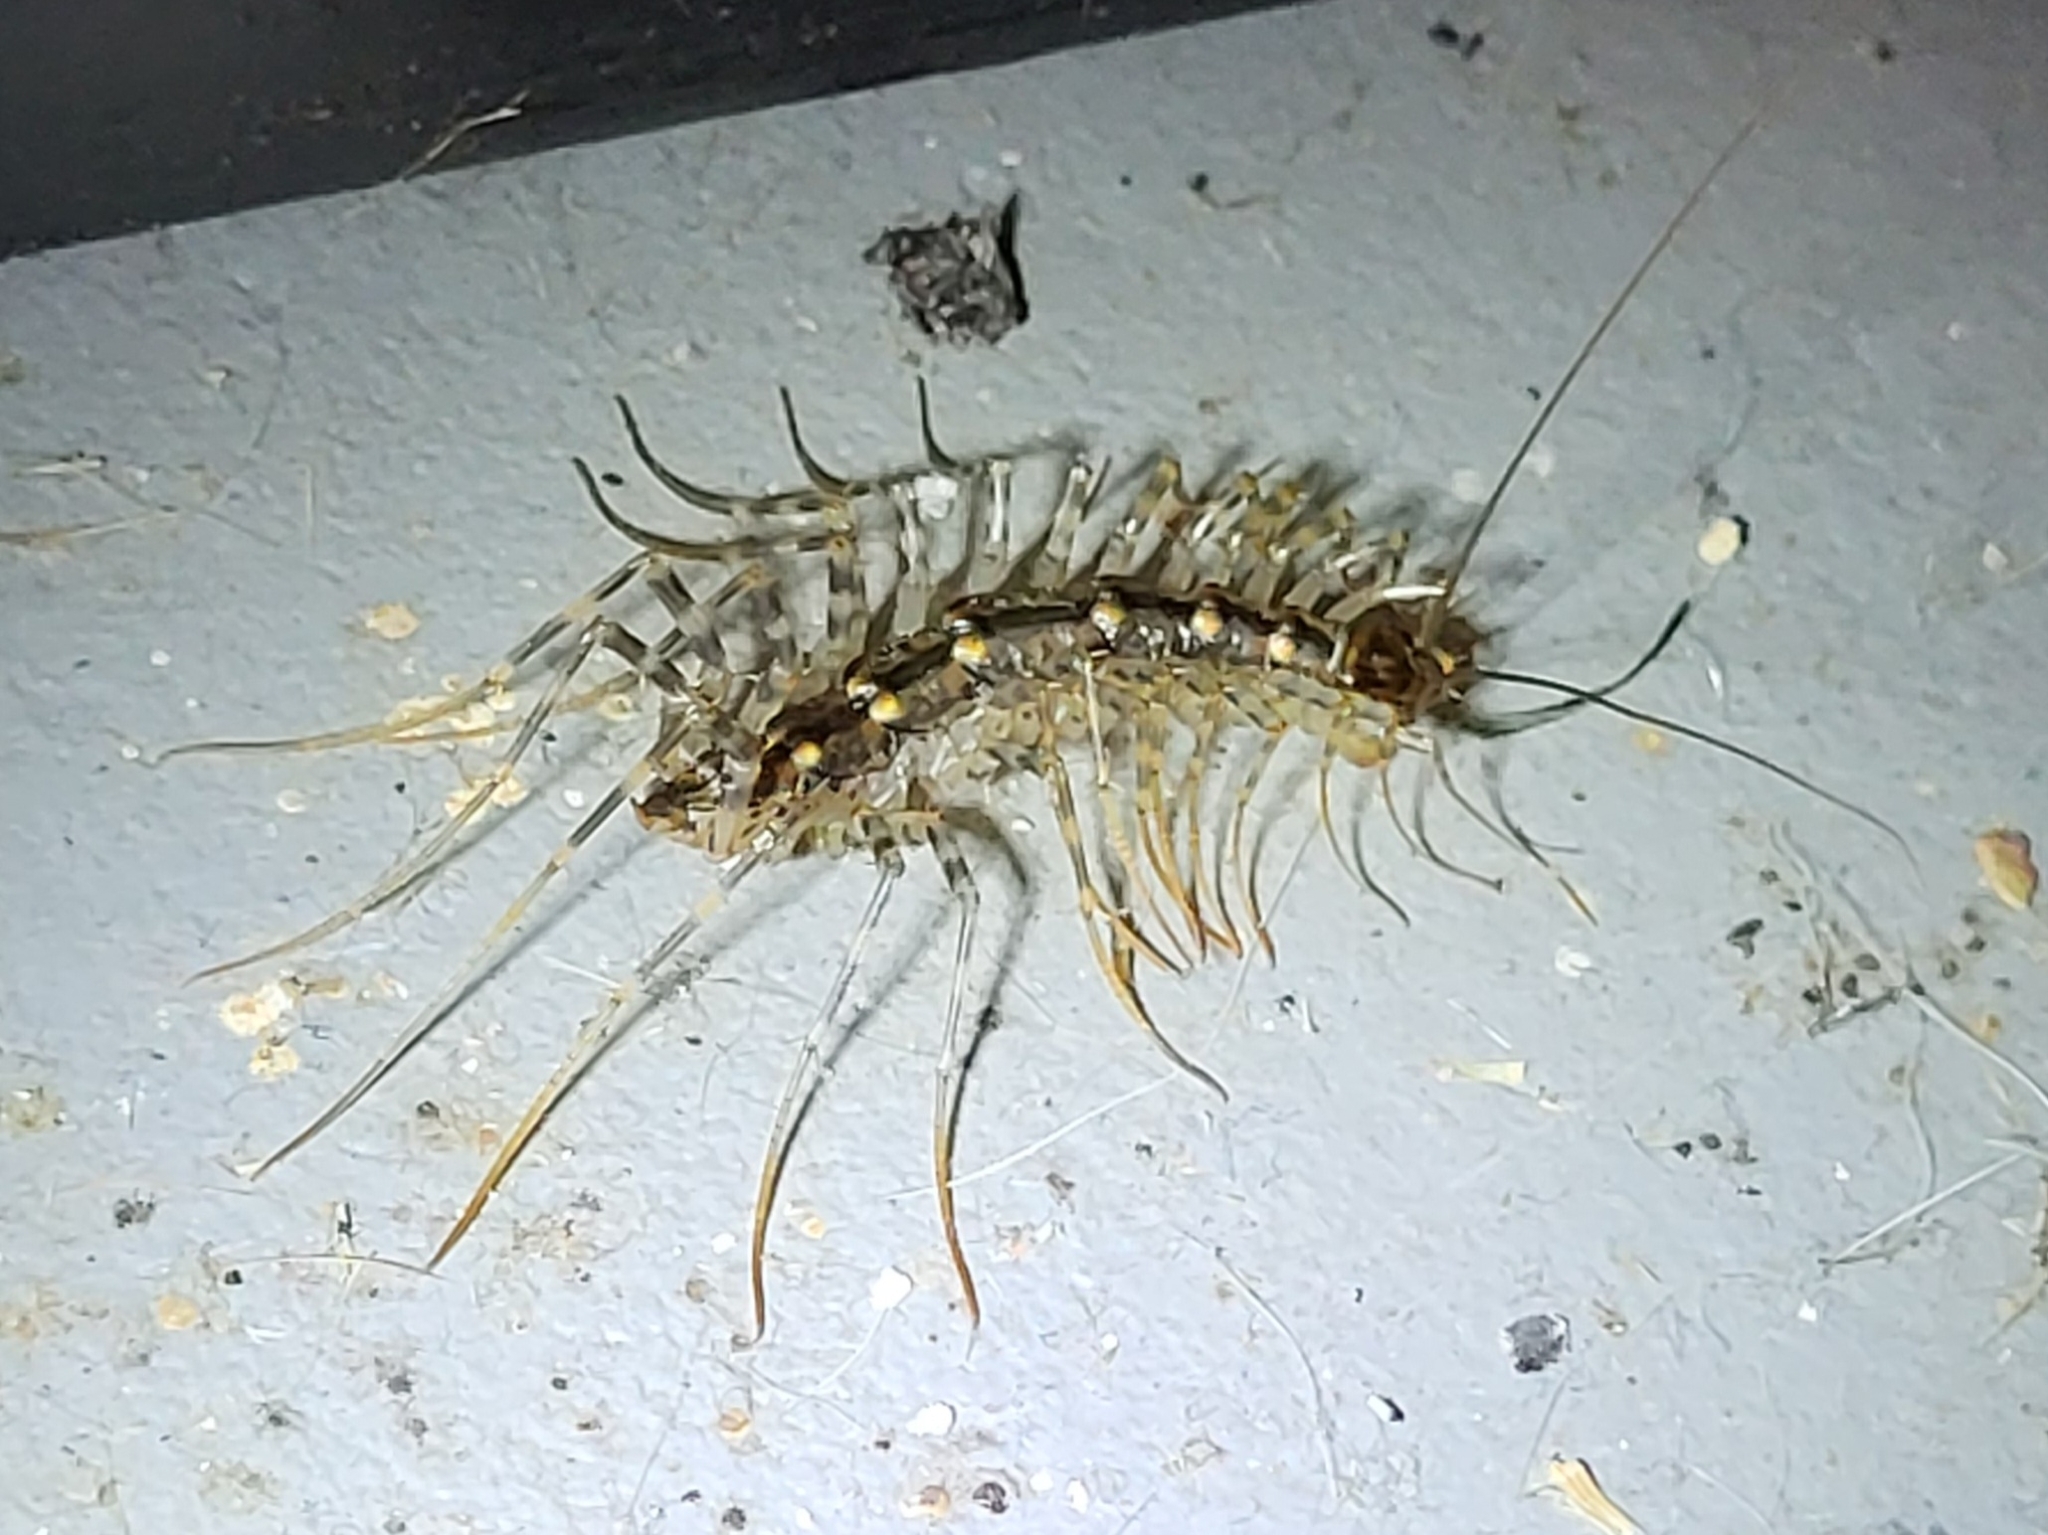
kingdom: Animalia
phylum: Arthropoda
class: Chilopoda
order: Scutigeromorpha
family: Scutigeridae
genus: Thereuonema
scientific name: Thereuonema tuberculata
